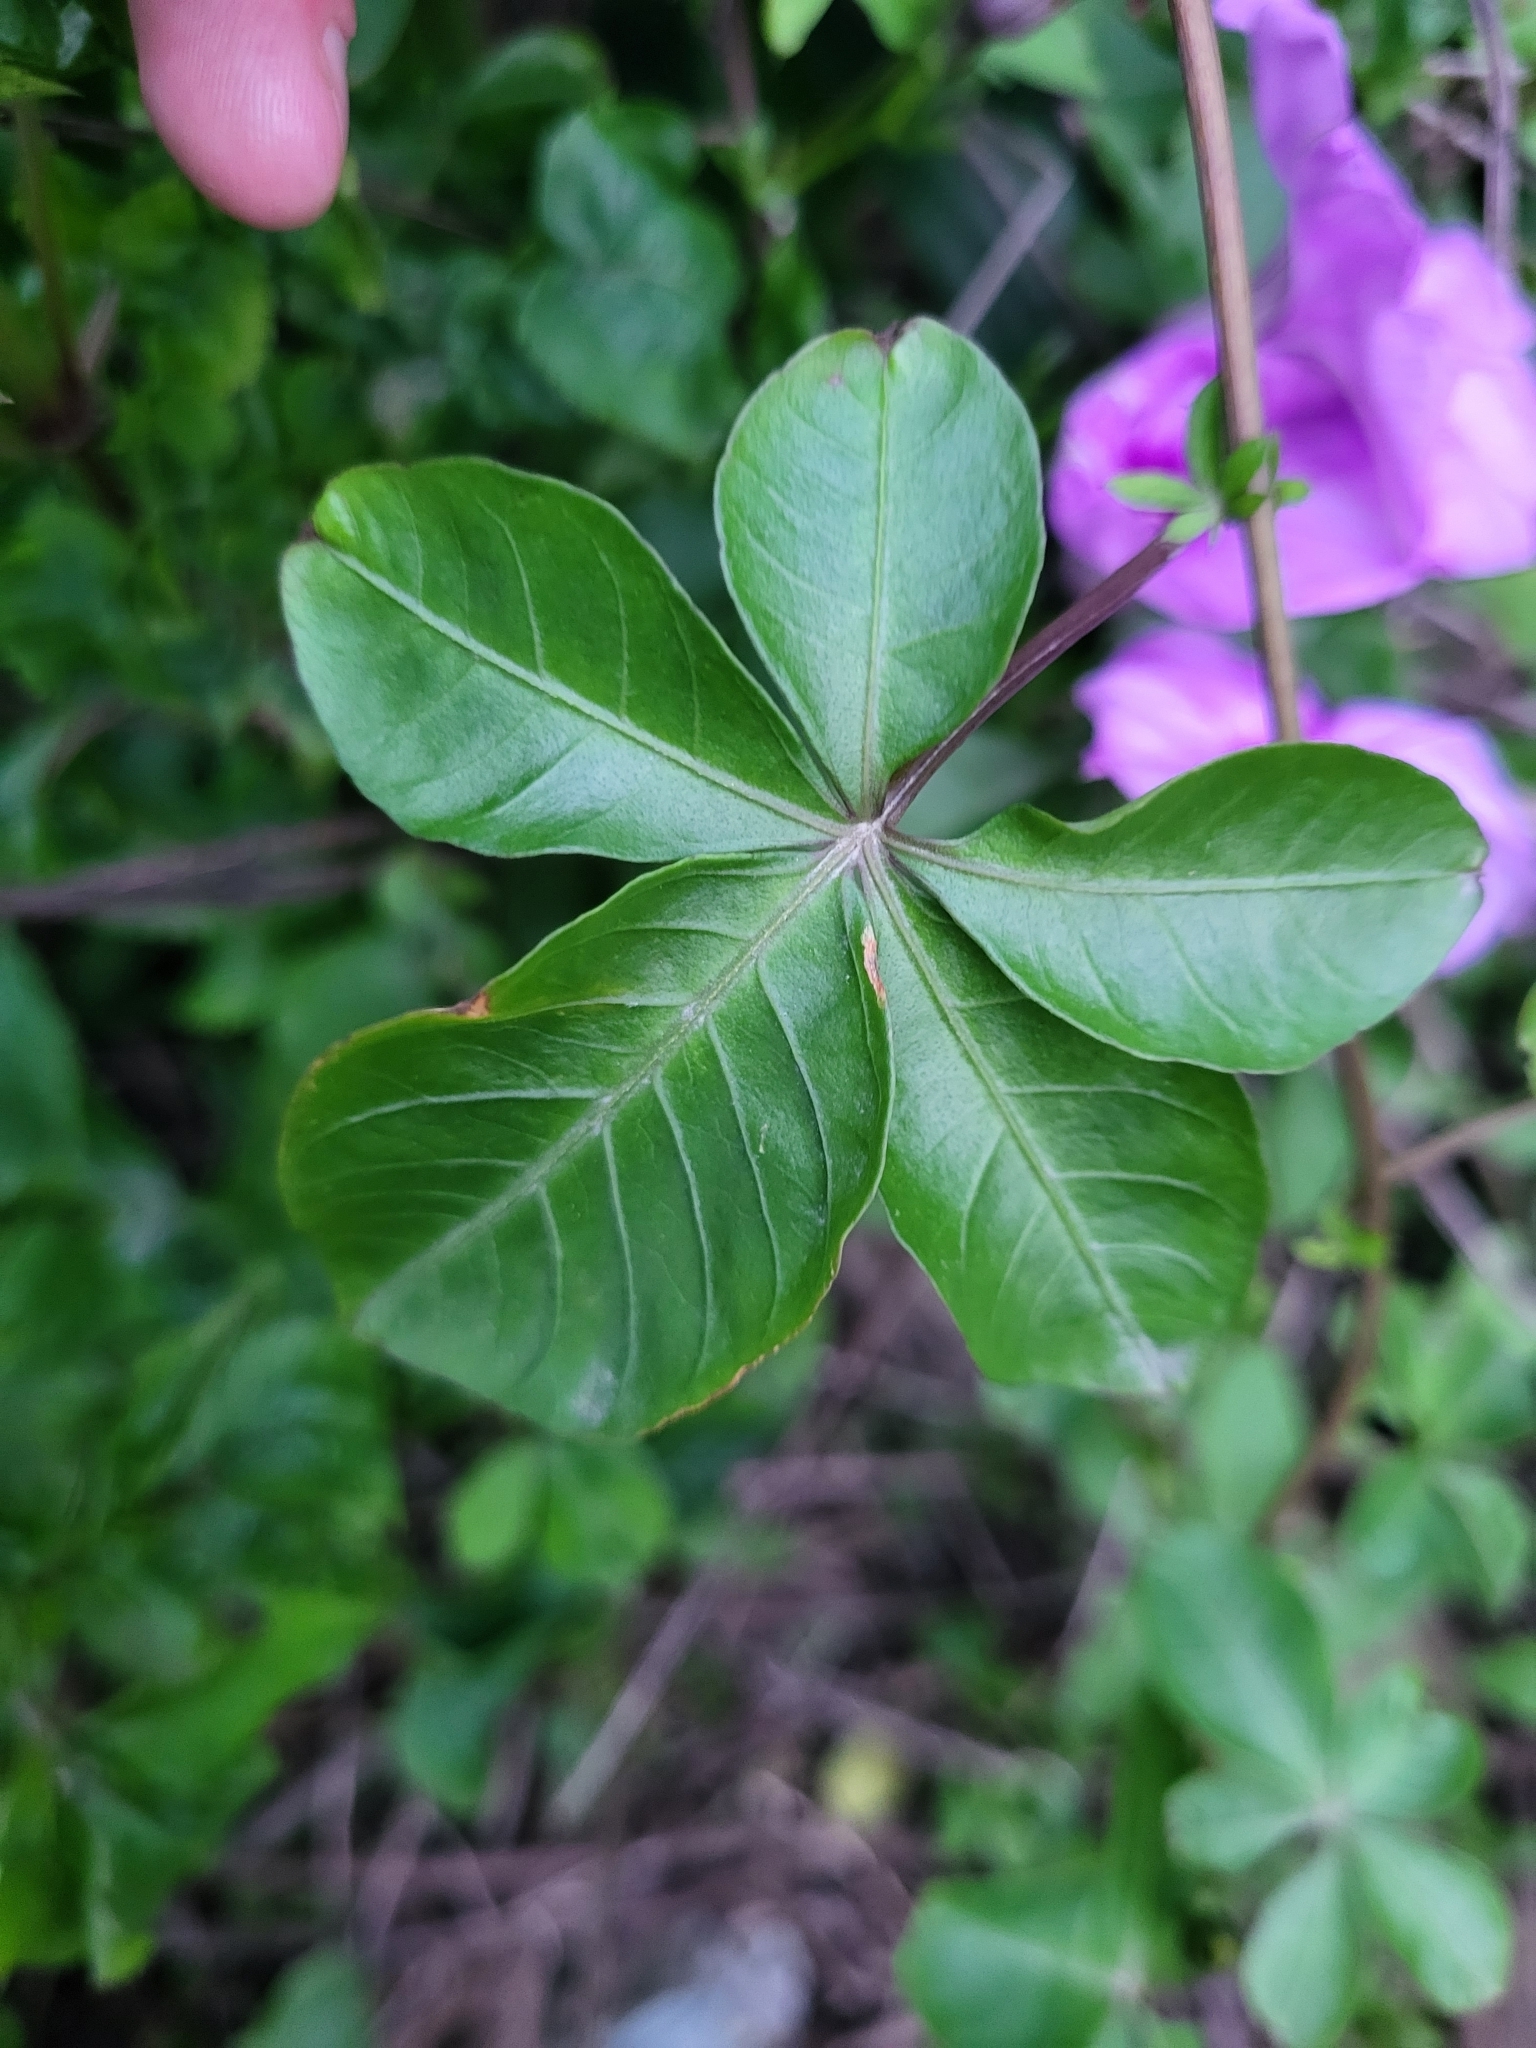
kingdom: Plantae
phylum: Tracheophyta
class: Magnoliopsida
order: Solanales
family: Convolvulaceae
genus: Ipomoea
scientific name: Ipomoea cairica
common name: Mile a minute vine
